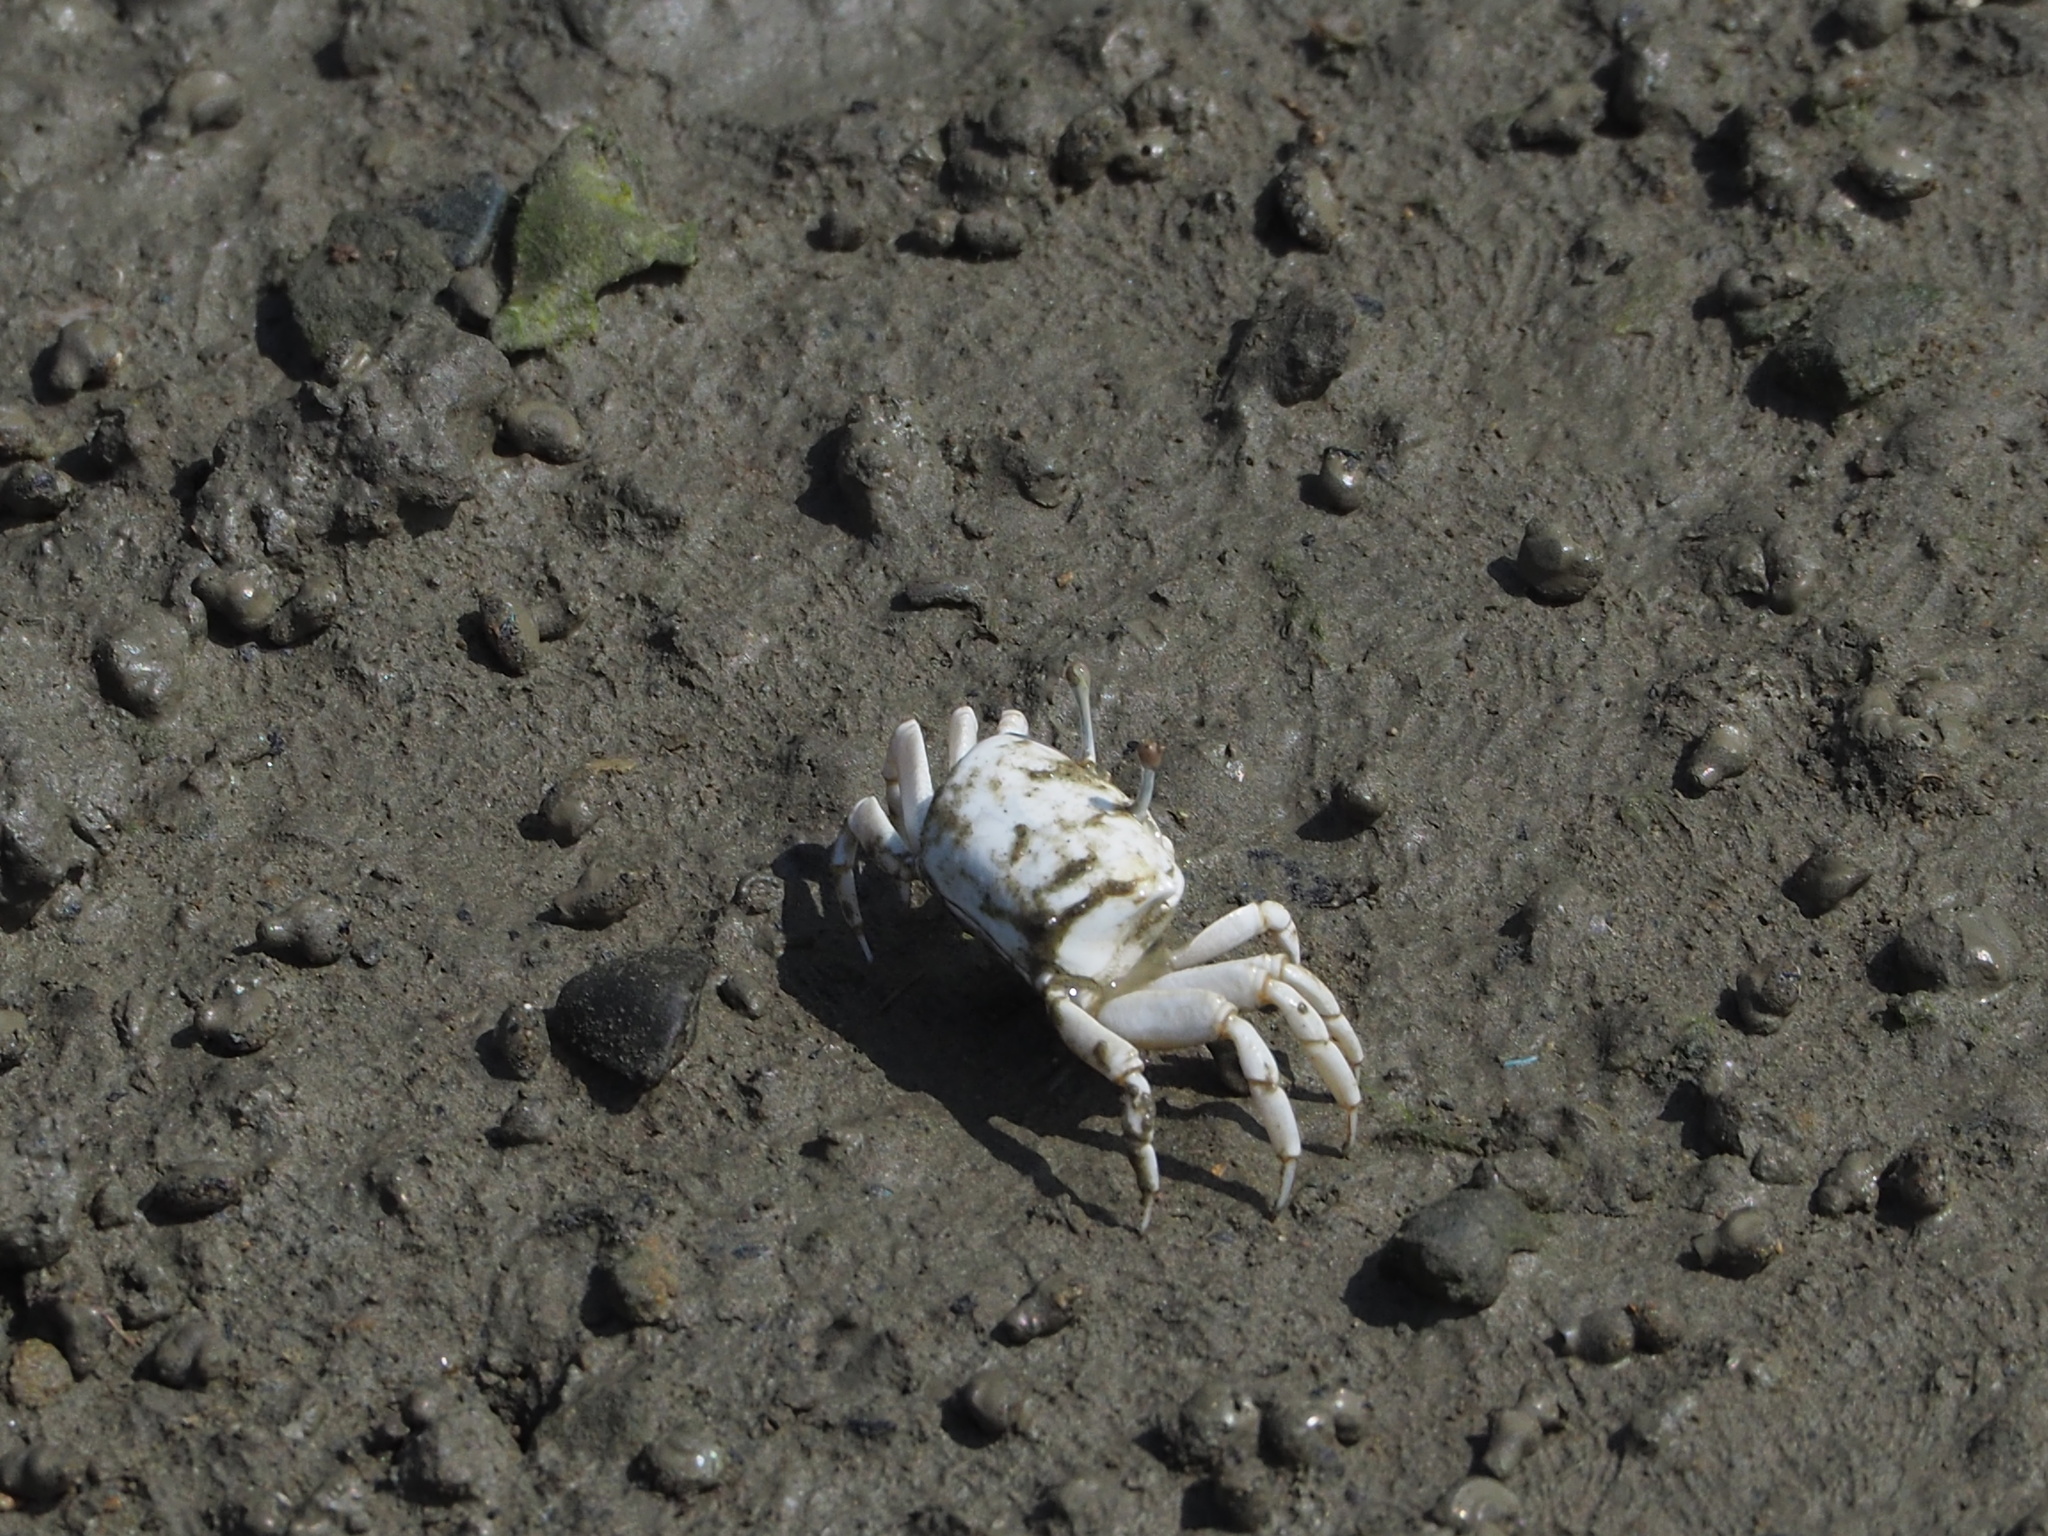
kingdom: Animalia
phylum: Arthropoda
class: Malacostraca
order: Decapoda
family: Ocypodidae
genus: Austruca
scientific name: Austruca lactea
